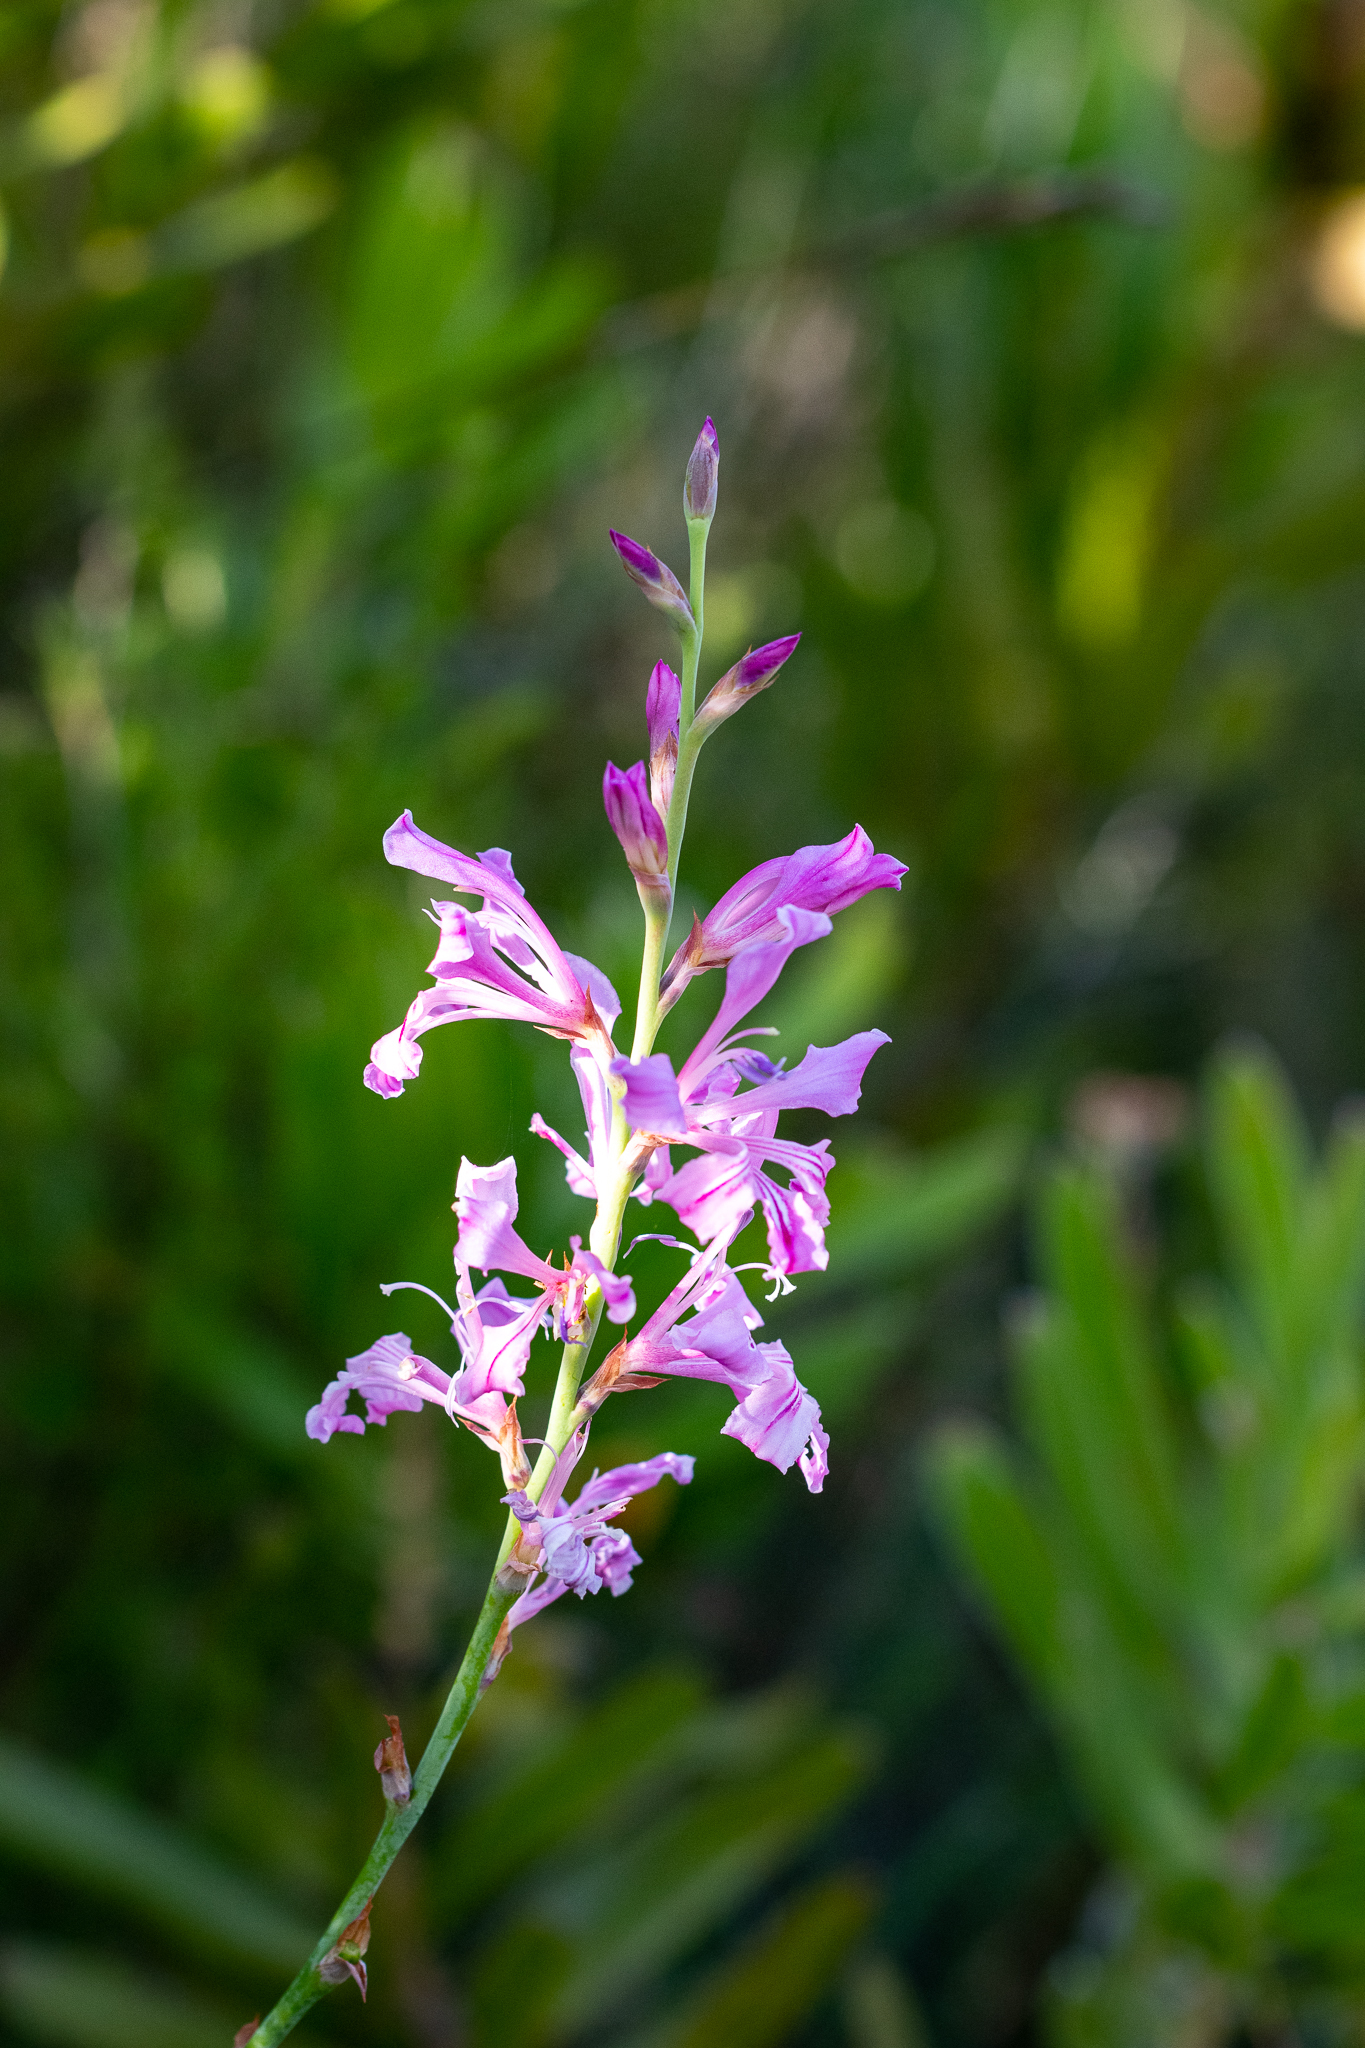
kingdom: Plantae
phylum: Tracheophyta
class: Liliopsida
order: Asparagales
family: Iridaceae
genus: Tritoniopsis
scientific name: Tritoniopsis lata
